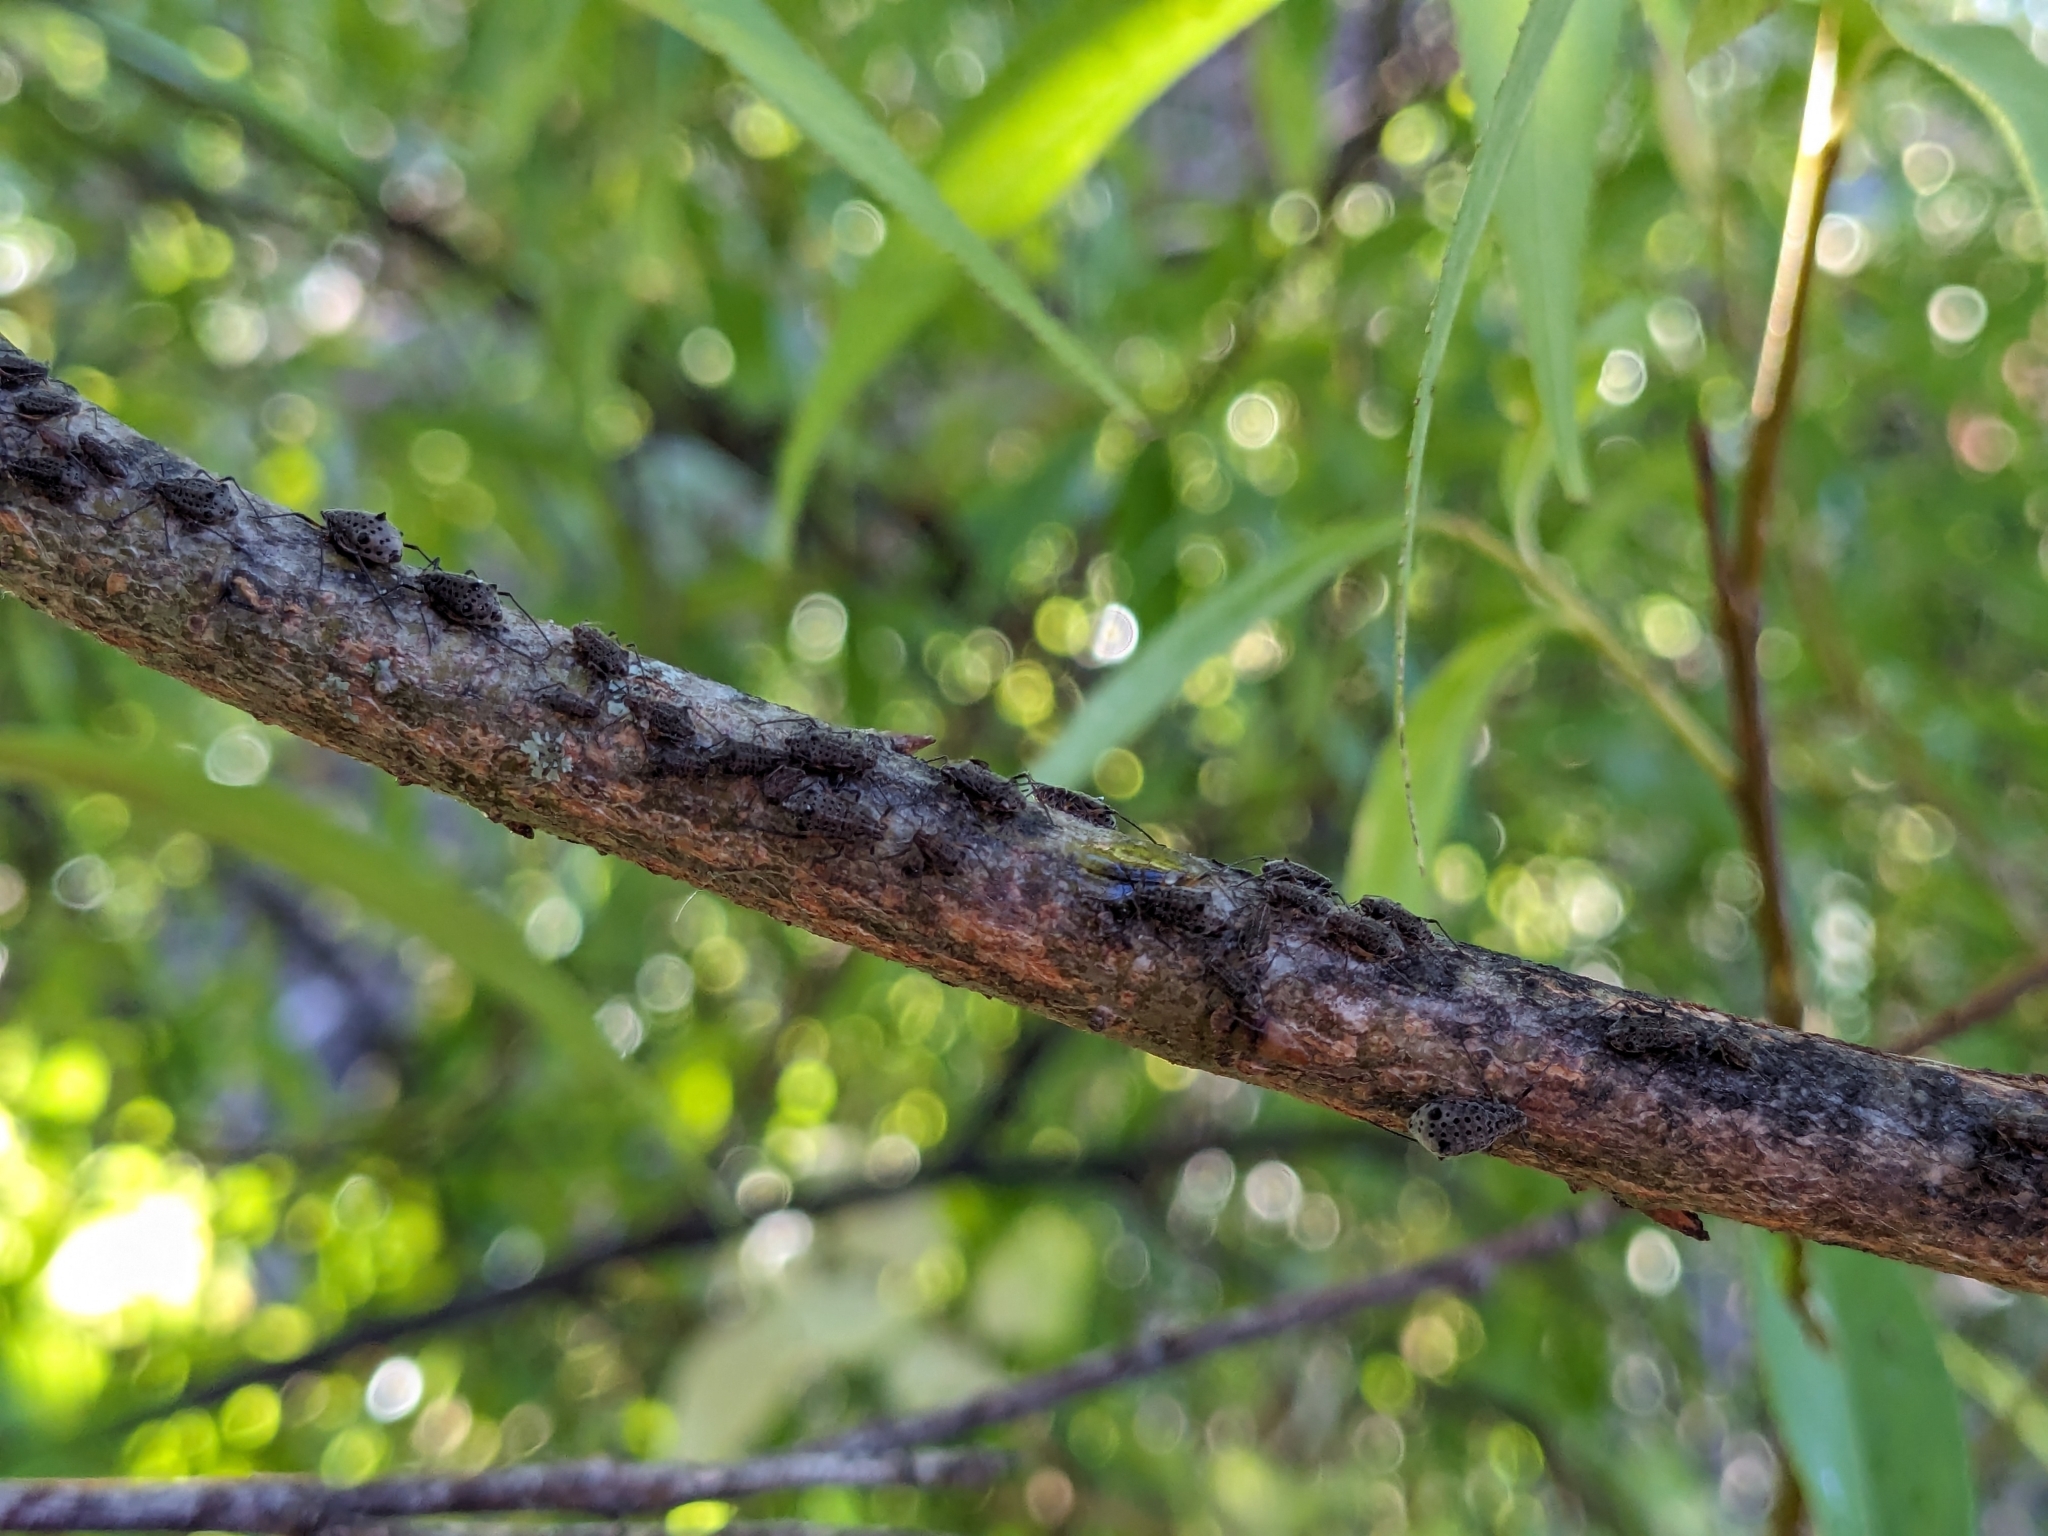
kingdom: Animalia
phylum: Arthropoda
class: Insecta
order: Hemiptera
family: Aphididae
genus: Tuberolachnus
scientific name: Tuberolachnus salignus
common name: Giant willow aphid
